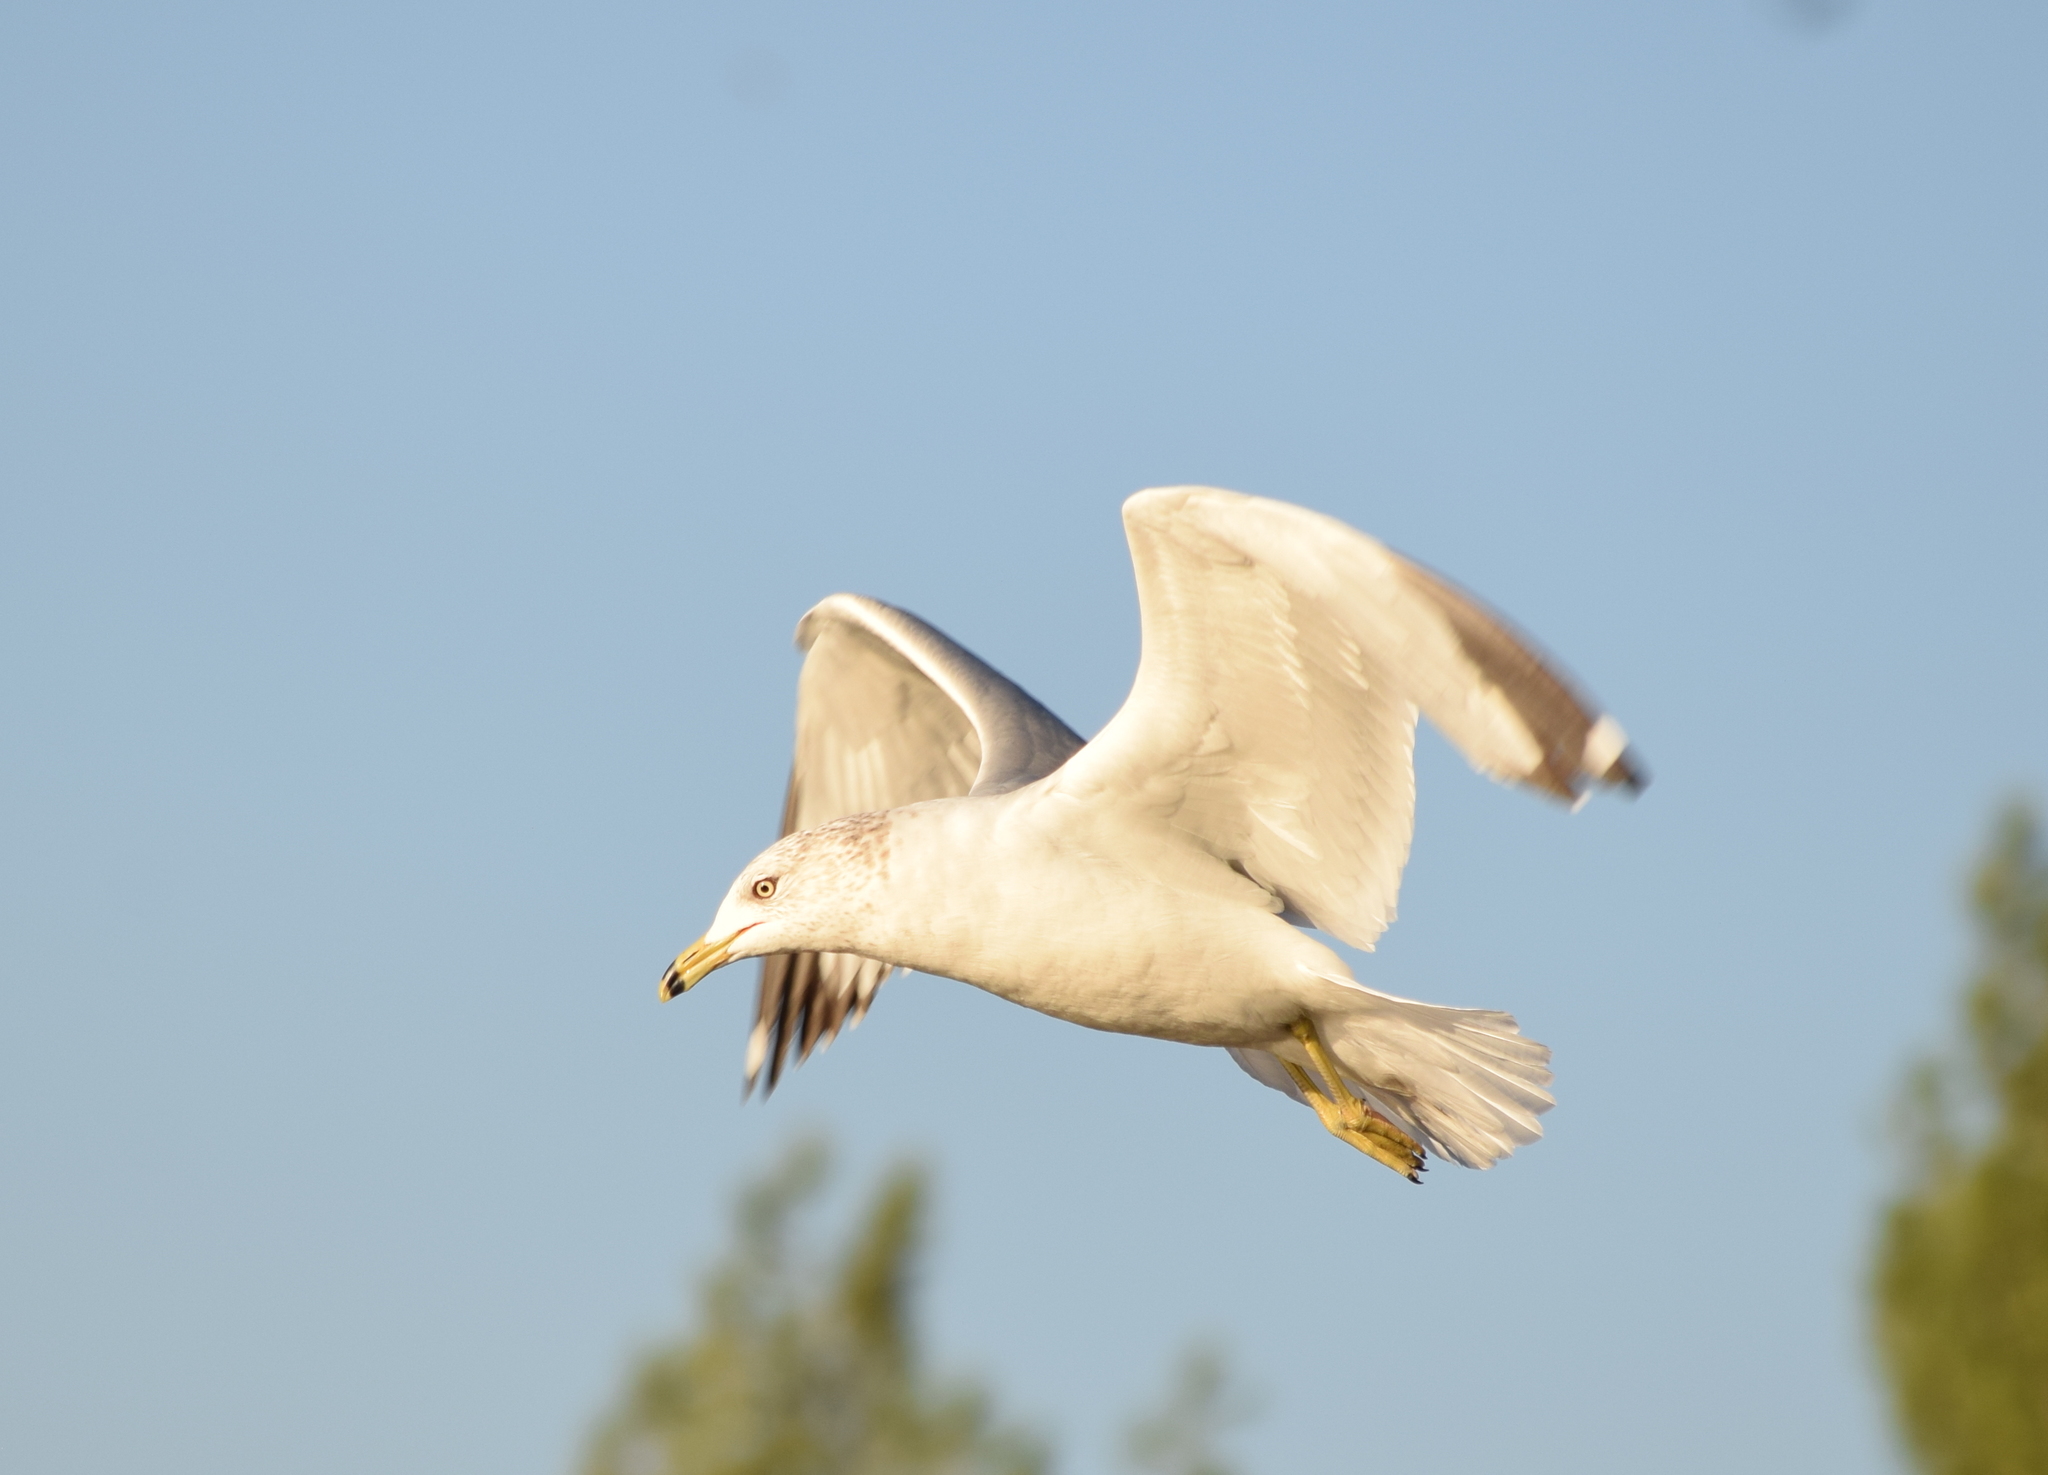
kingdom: Animalia
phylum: Chordata
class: Aves
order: Charadriiformes
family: Laridae
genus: Larus
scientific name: Larus delawarensis
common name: Ring-billed gull
